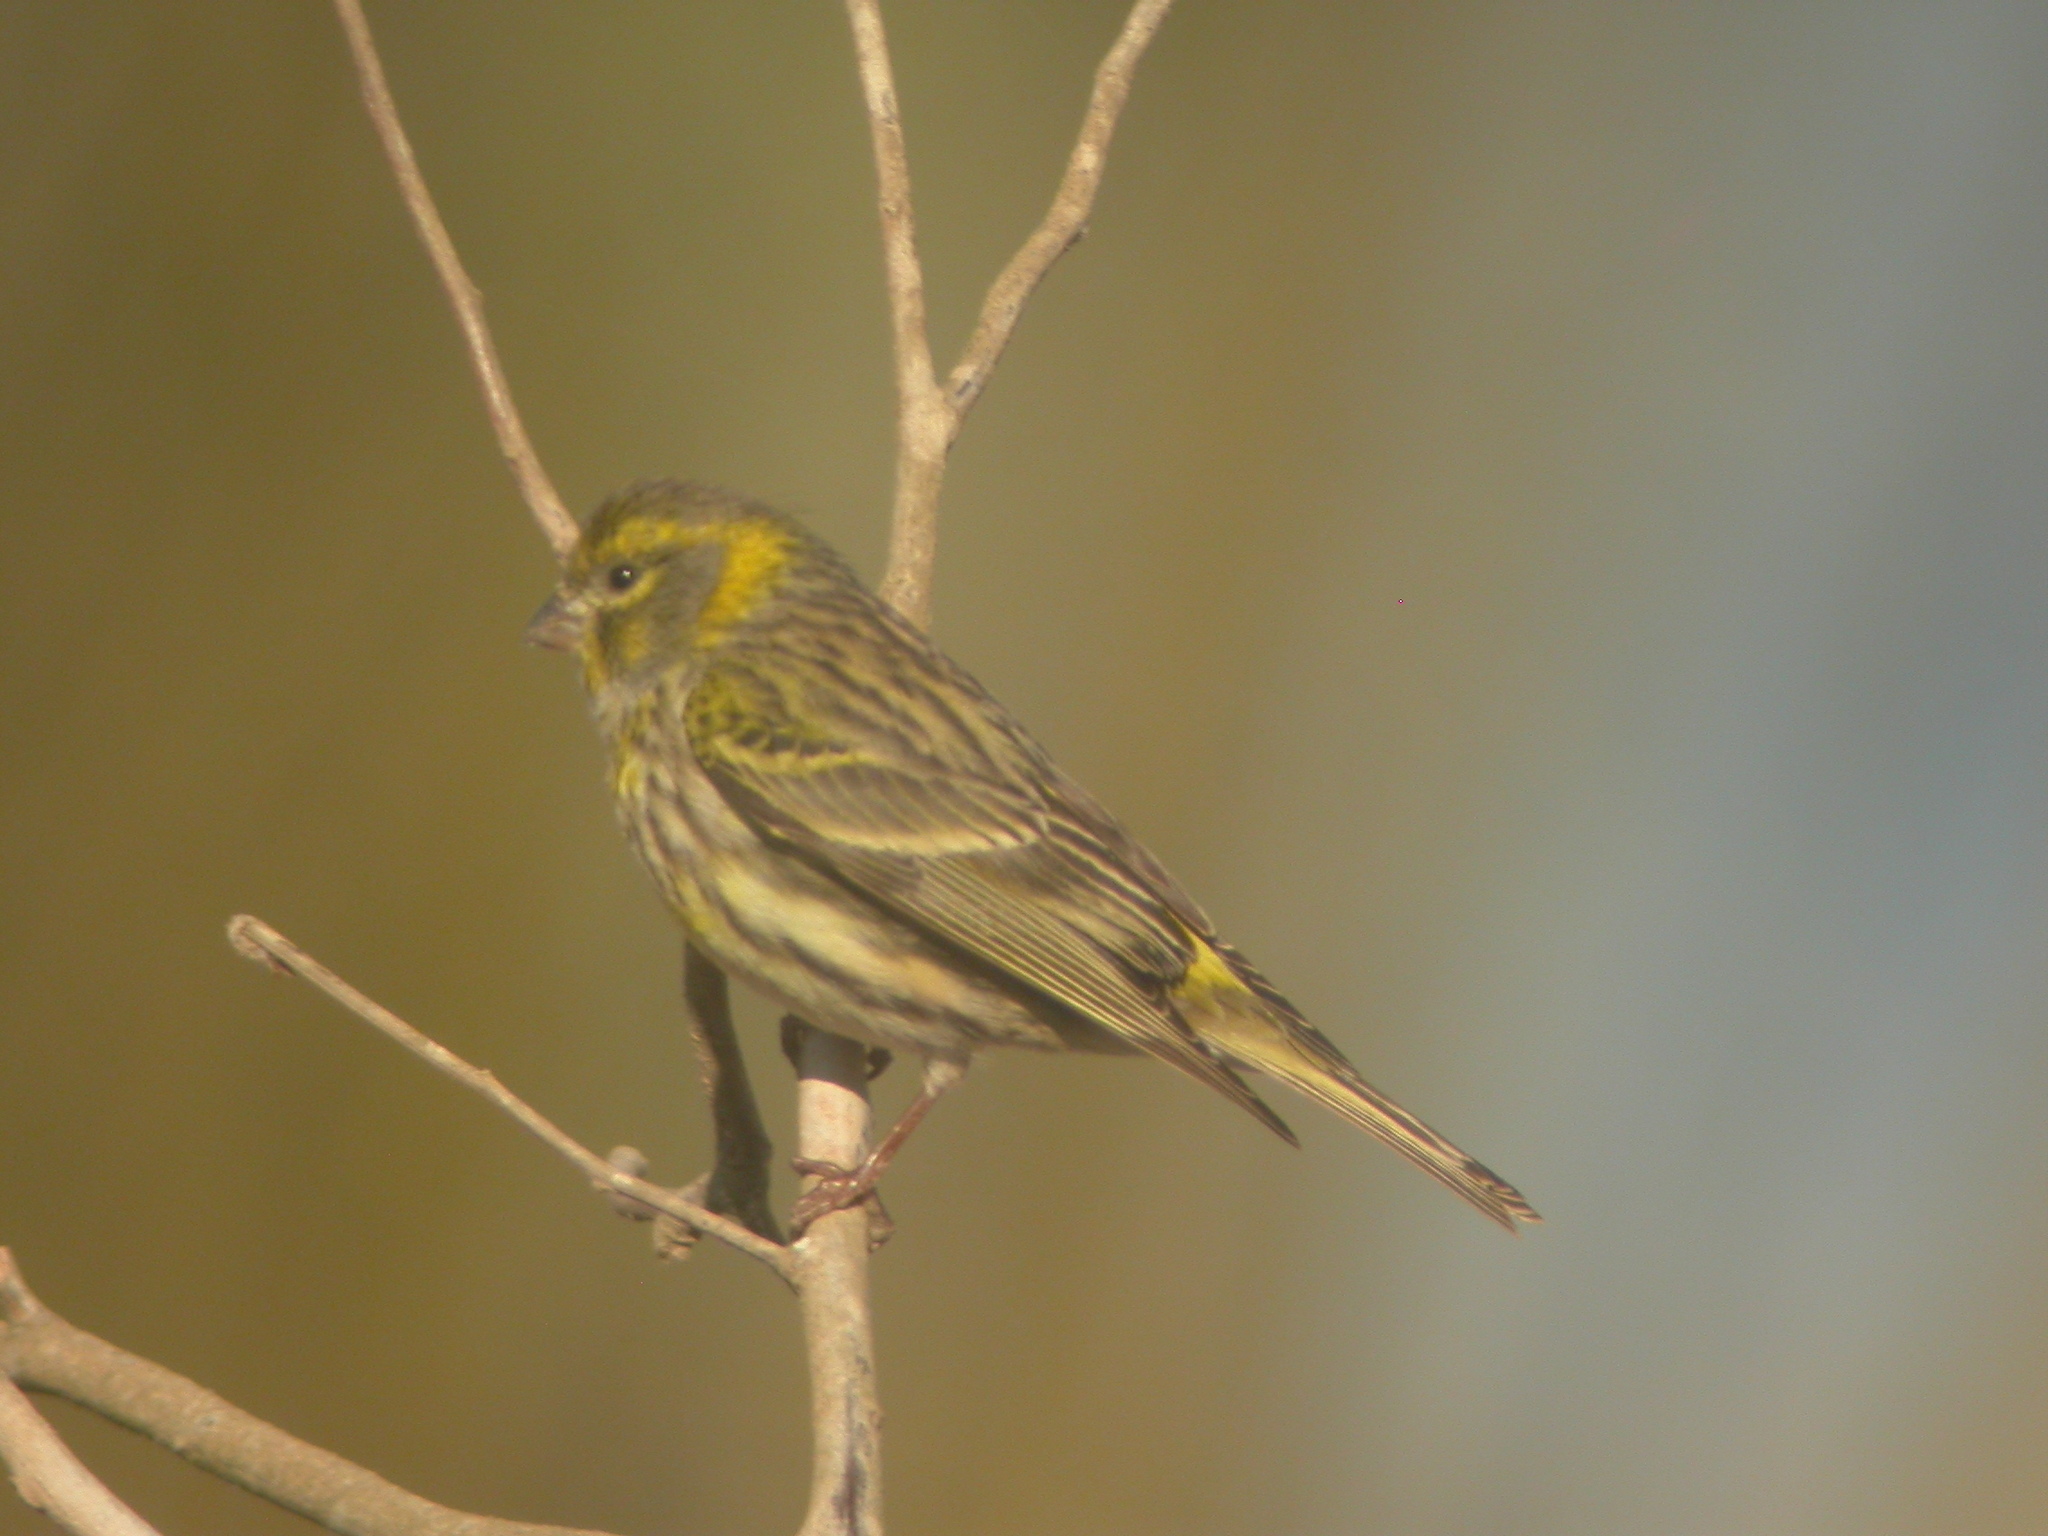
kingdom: Animalia
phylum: Chordata
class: Aves
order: Passeriformes
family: Fringillidae
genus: Serinus
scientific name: Serinus serinus
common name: European serin
